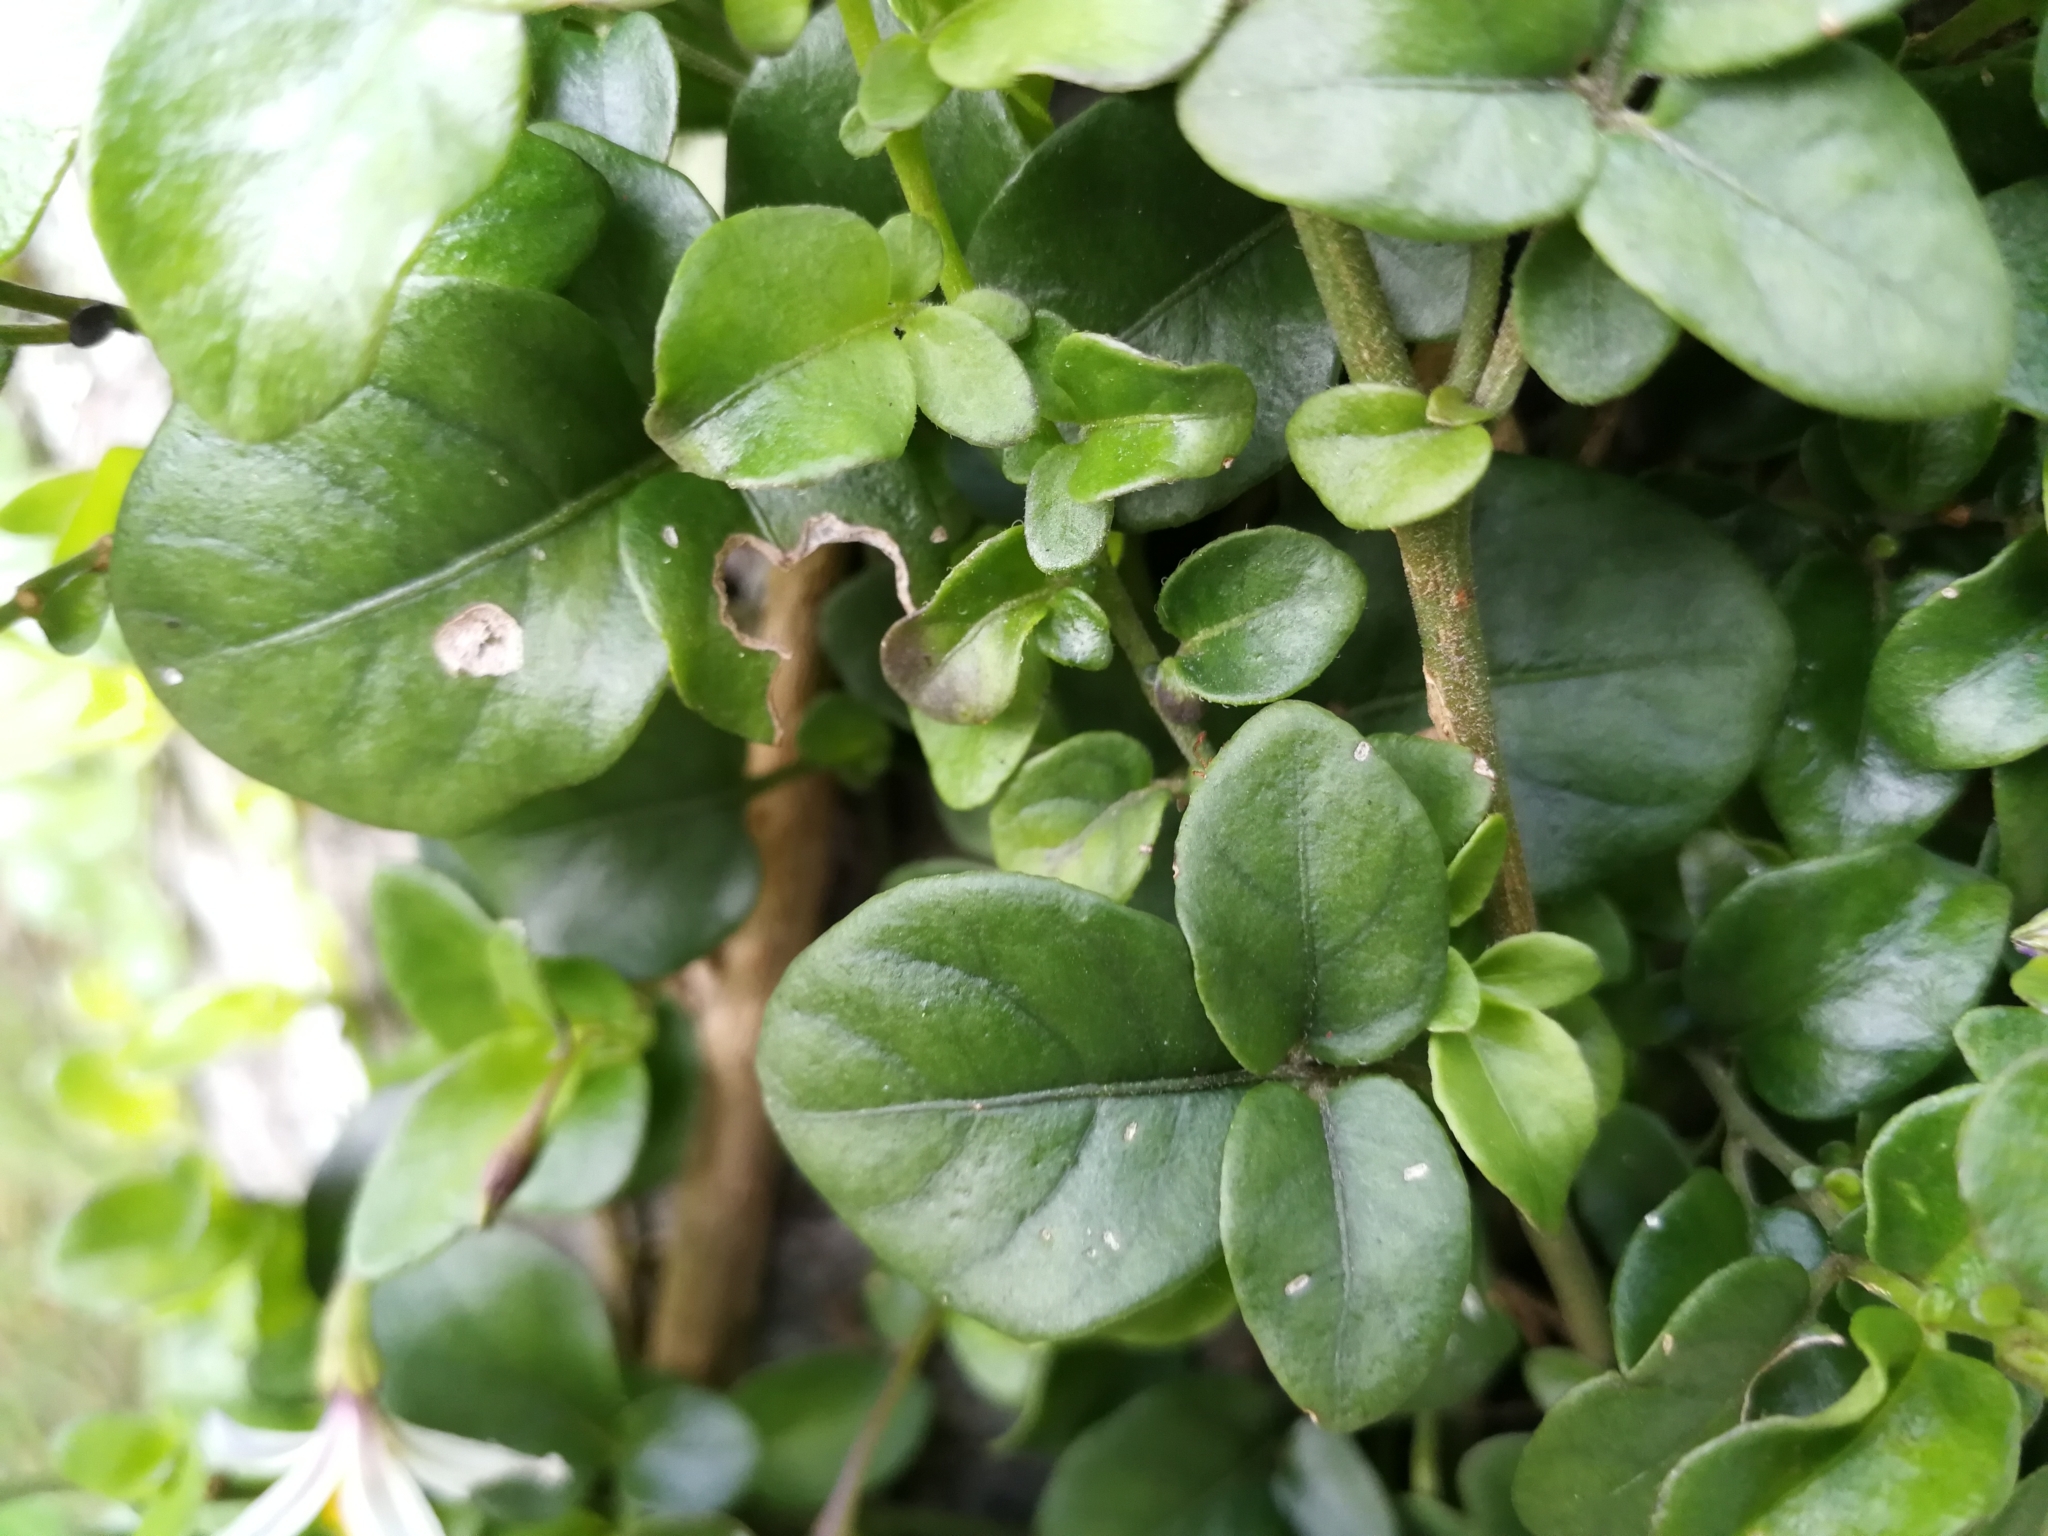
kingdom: Plantae
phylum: Tracheophyta
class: Magnoliopsida
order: Solanales
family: Solanaceae
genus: Solanum
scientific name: Solanum brevifolium
